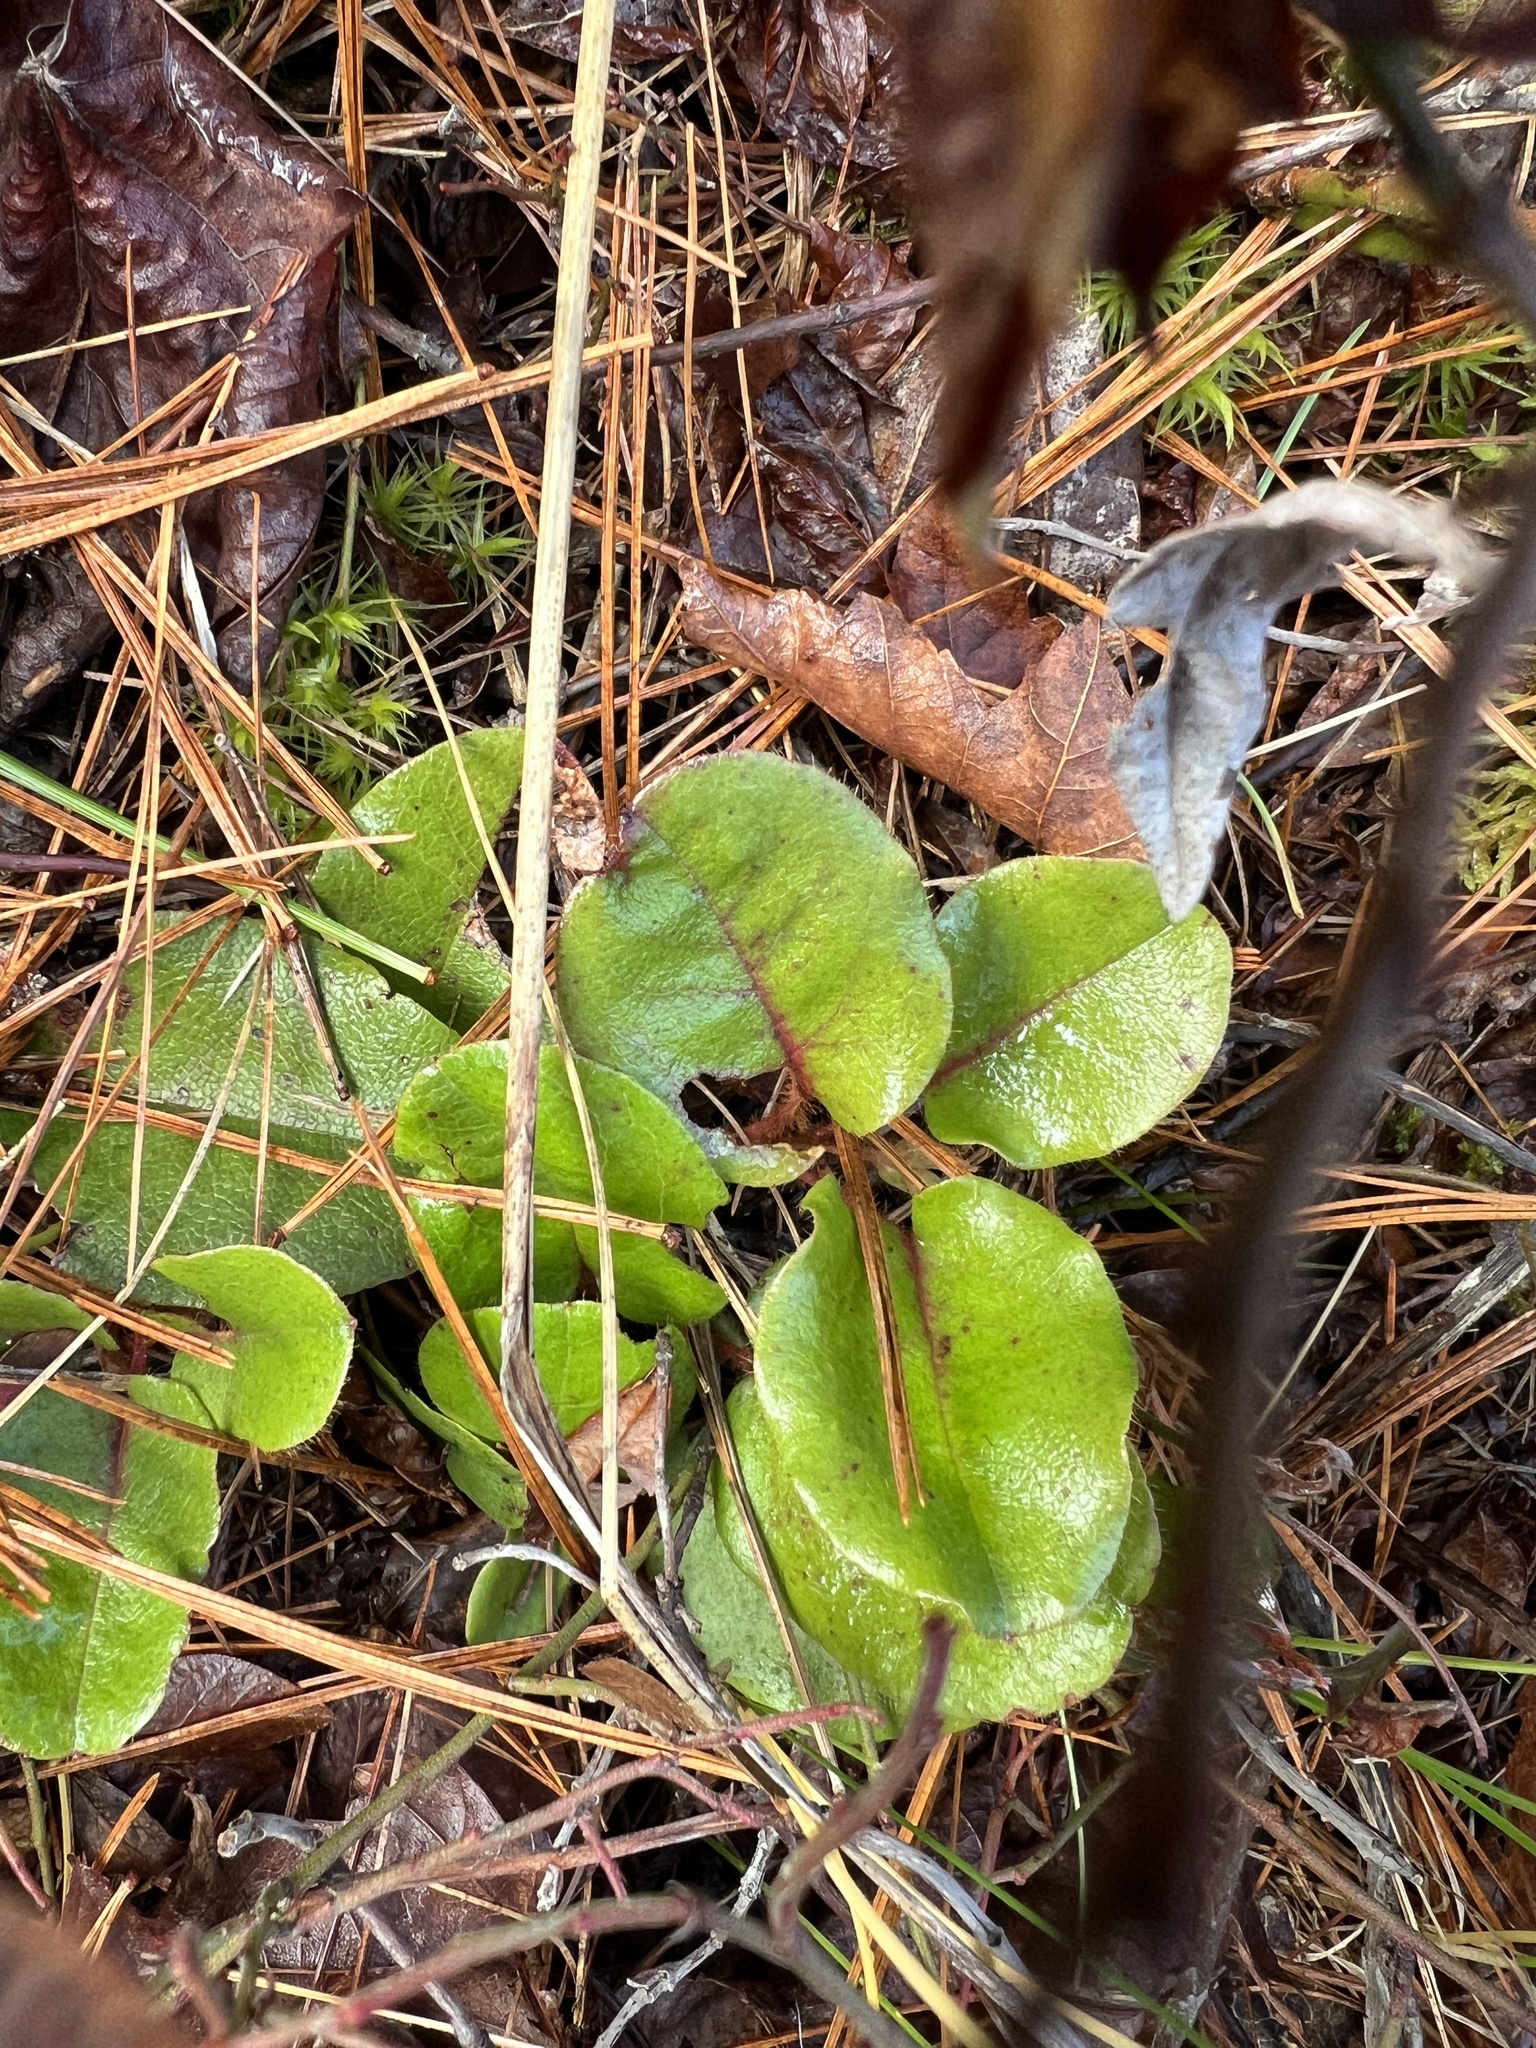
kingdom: Plantae
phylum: Tracheophyta
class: Magnoliopsida
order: Ericales
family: Ericaceae
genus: Epigaea
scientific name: Epigaea repens
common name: Gravelroot
